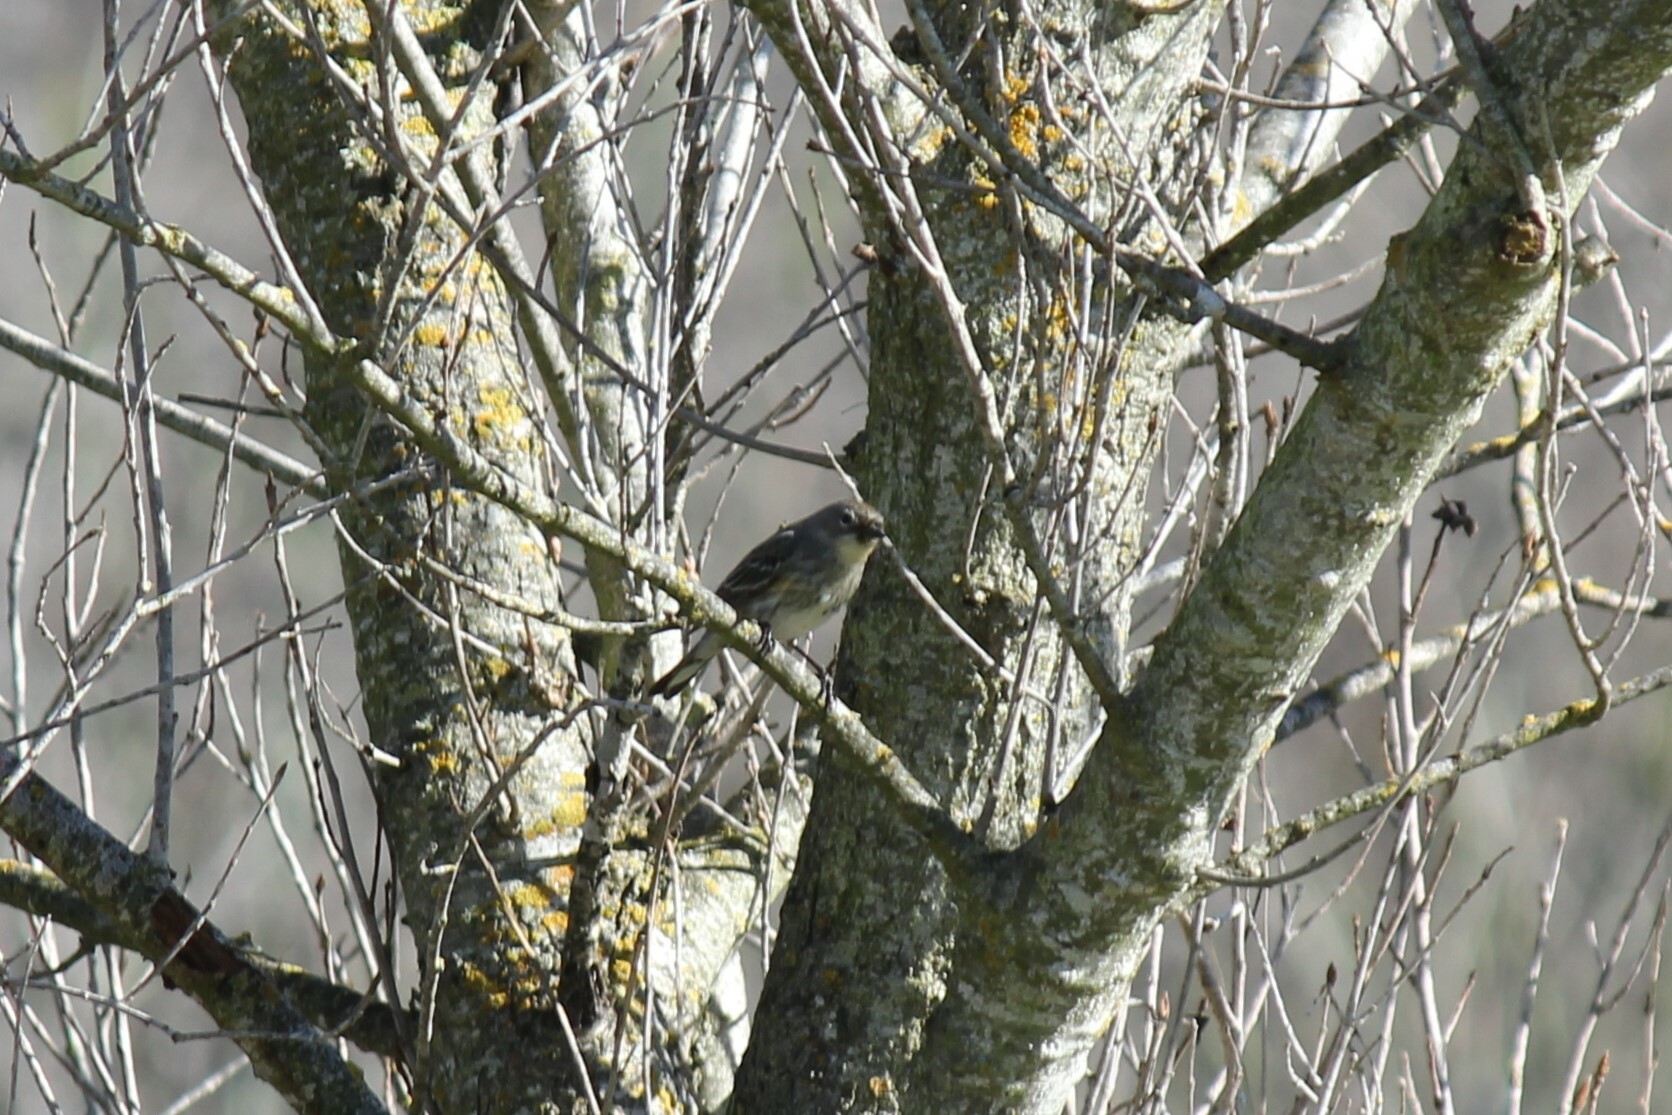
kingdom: Animalia
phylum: Chordata
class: Aves
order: Passeriformes
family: Parulidae
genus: Setophaga
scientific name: Setophaga coronata
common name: Myrtle warbler
